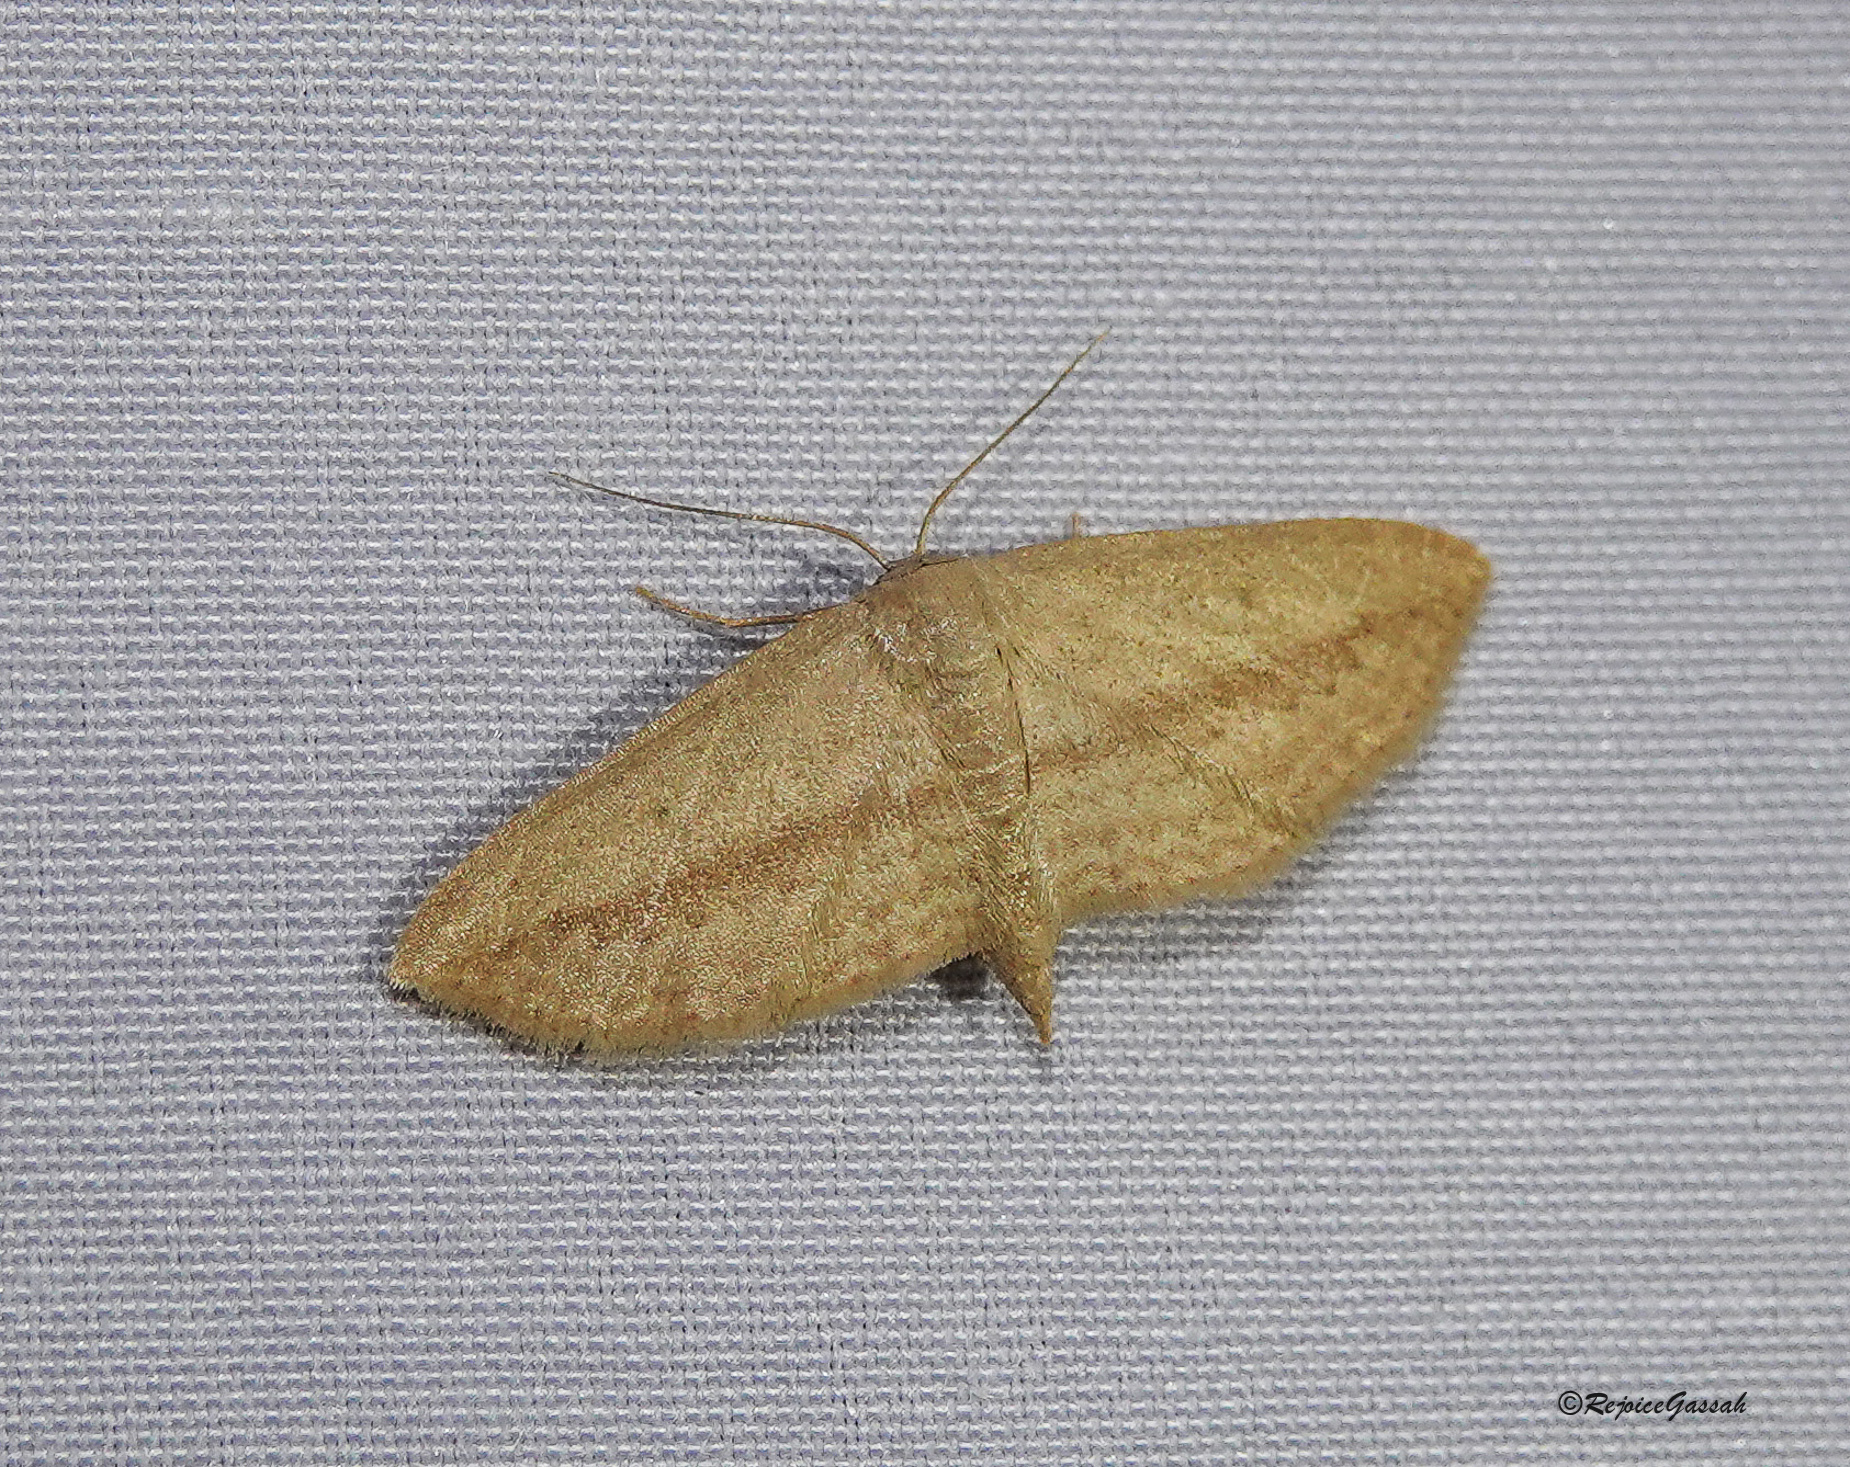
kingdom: Animalia
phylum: Arthropoda
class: Insecta
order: Lepidoptera
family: Geometridae
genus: Scopula
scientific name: Scopula emissaria
